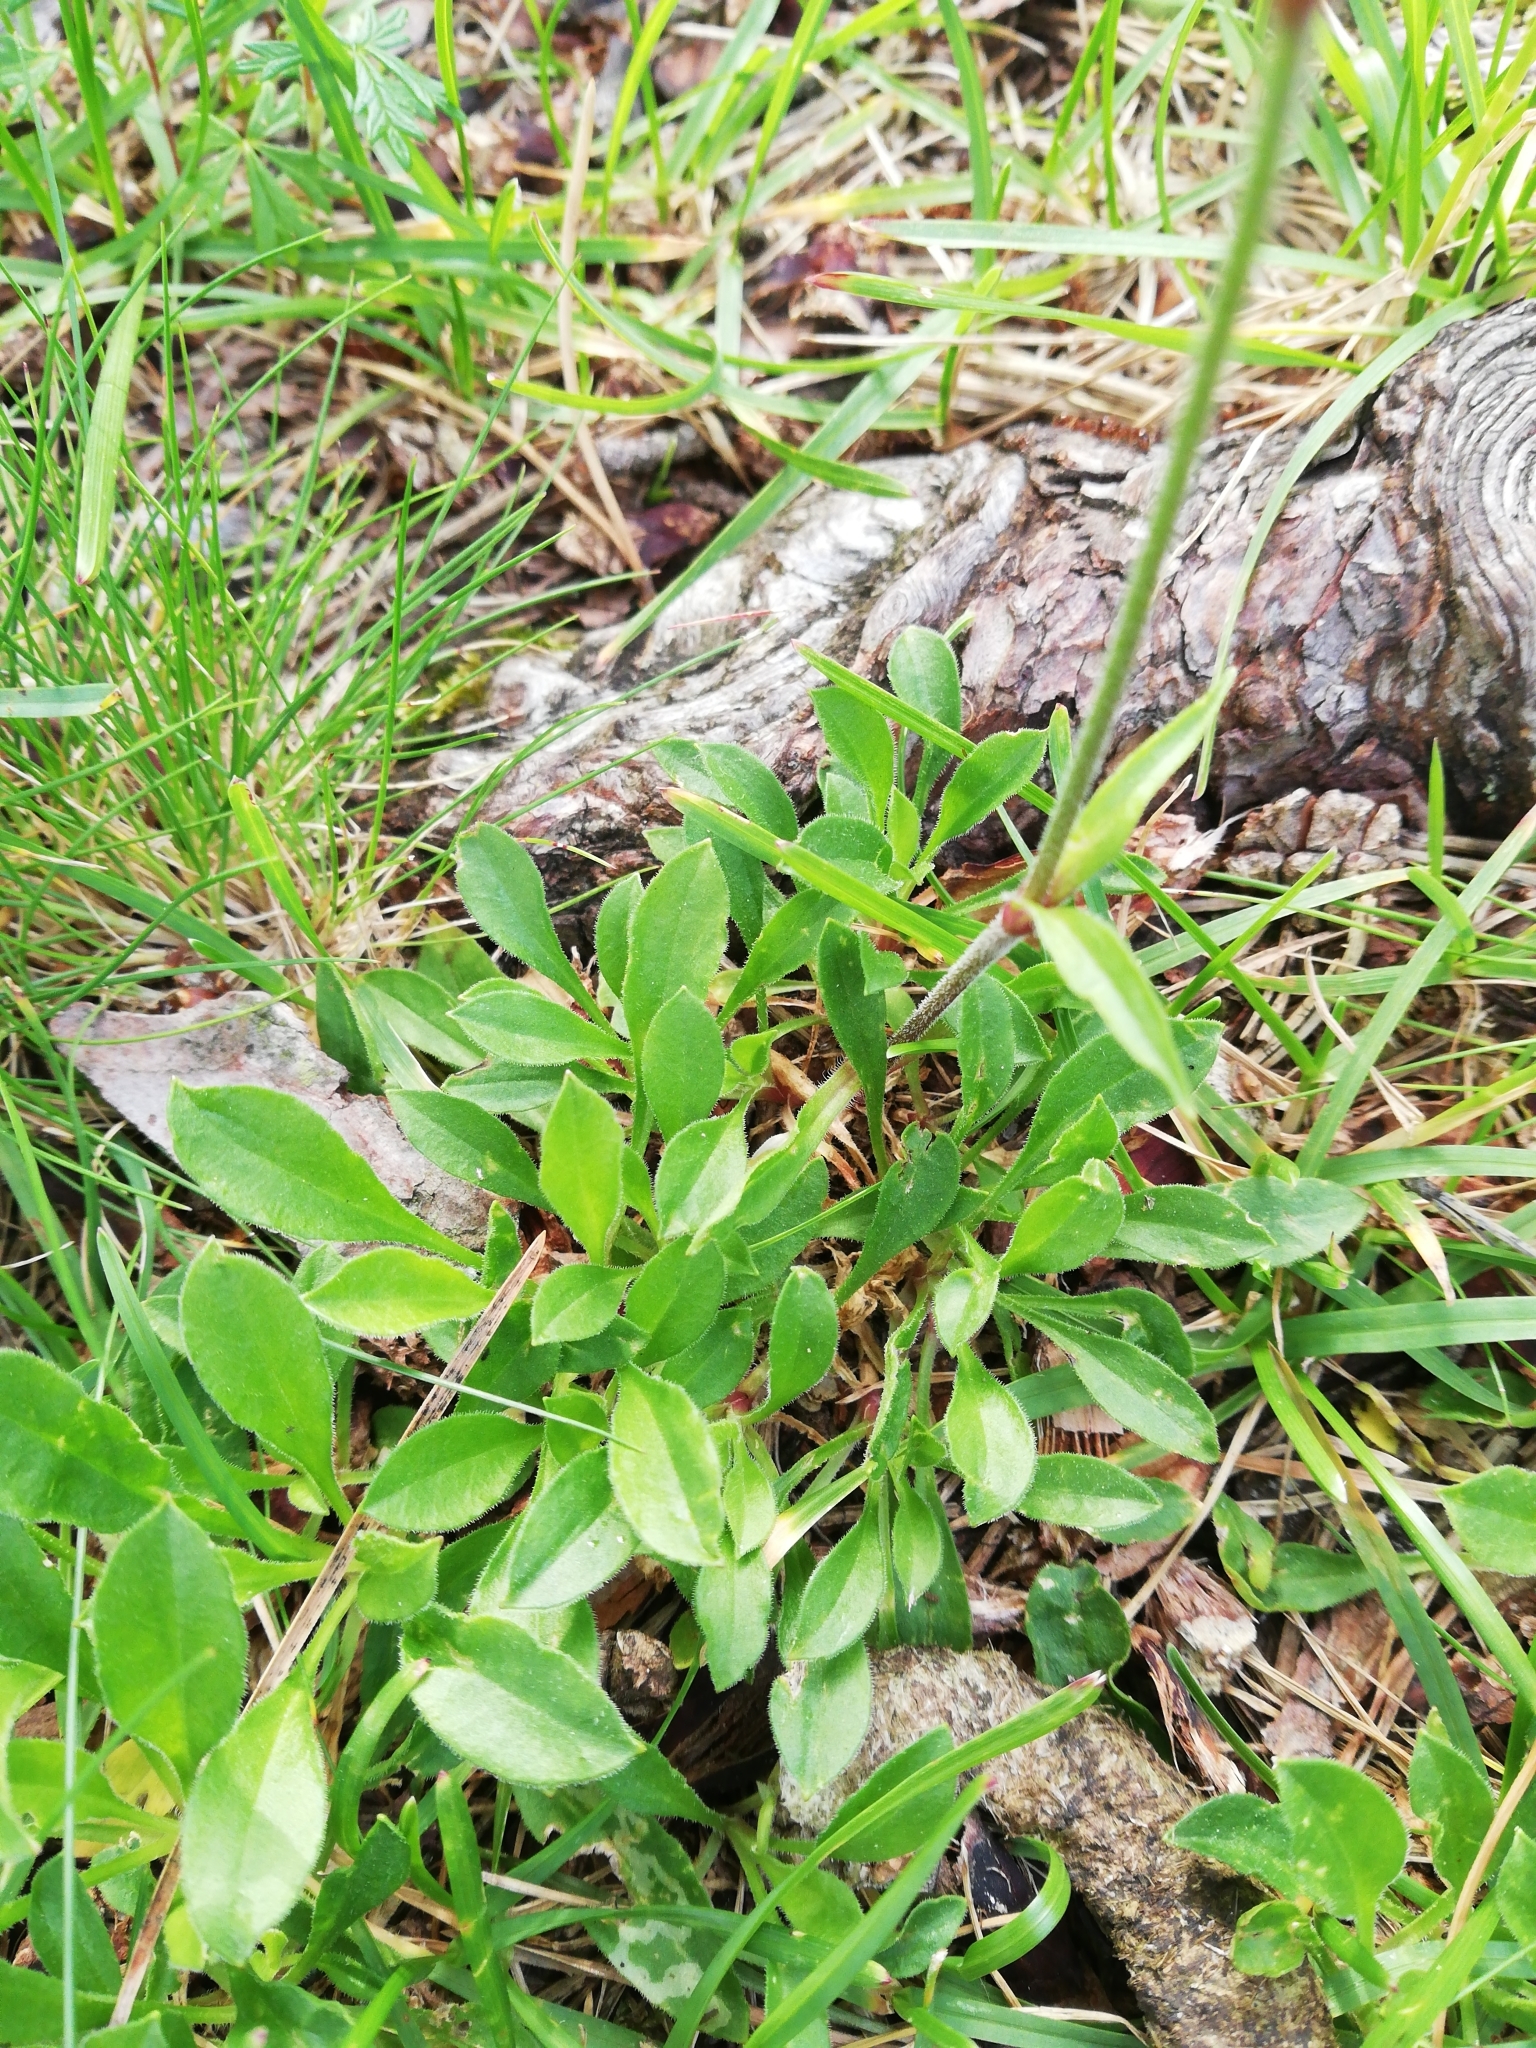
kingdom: Plantae
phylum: Tracheophyta
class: Magnoliopsida
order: Caryophyllales
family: Caryophyllaceae
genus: Silene
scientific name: Silene nutans
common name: Nottingham catchfly
